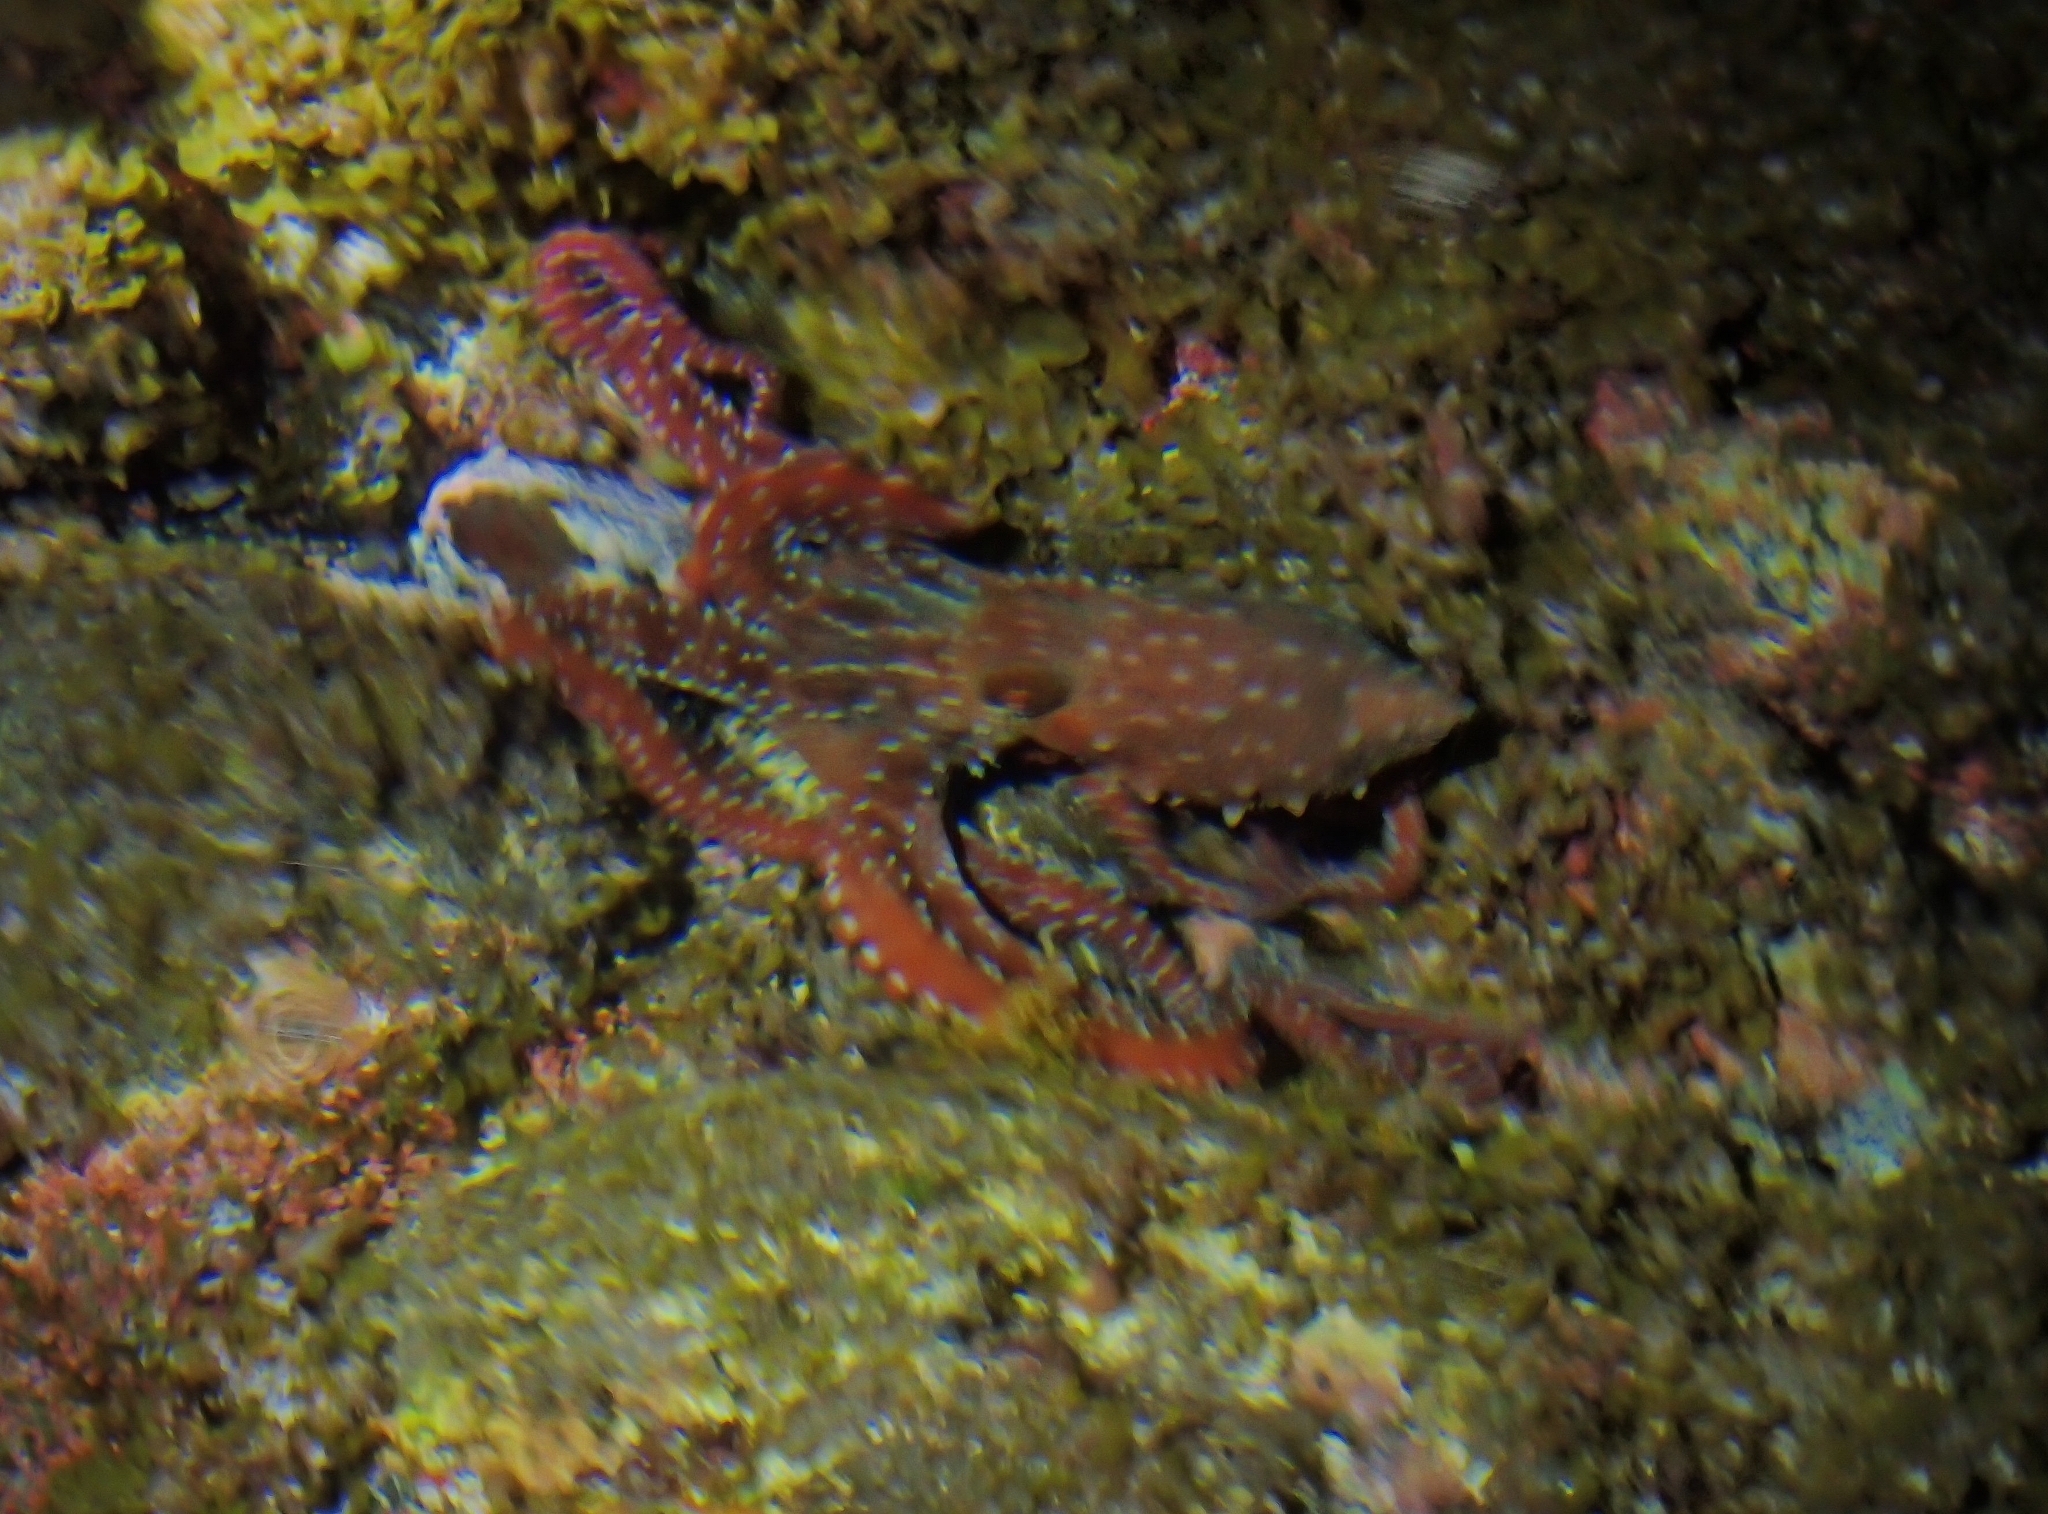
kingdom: Animalia
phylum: Mollusca
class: Cephalopoda
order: Octopoda
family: Octopodidae
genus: Callistoctopus
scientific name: Callistoctopus macropus
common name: Atlantic white-spotted octopus
